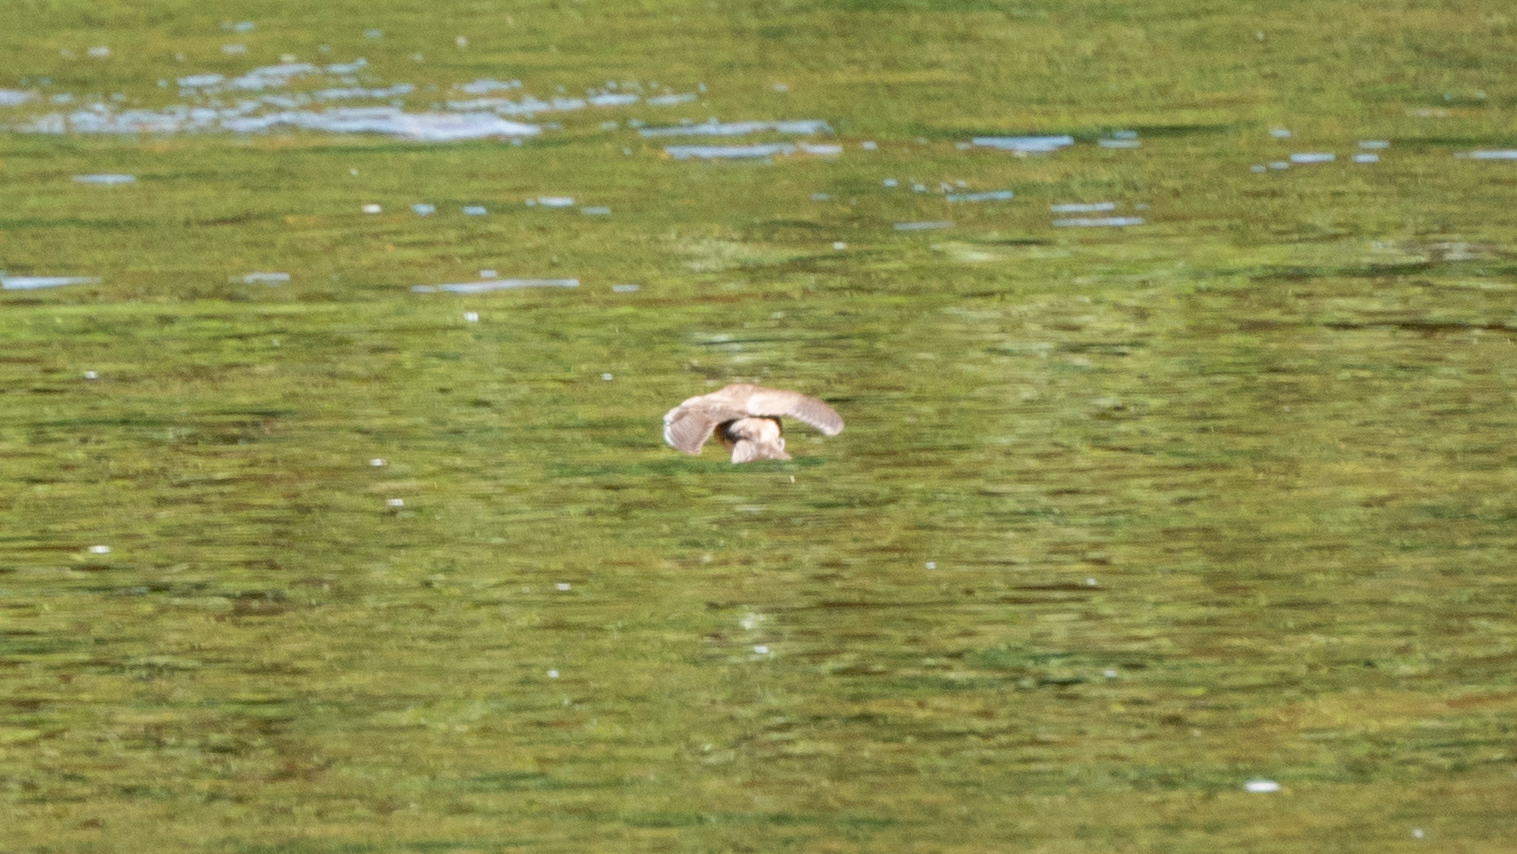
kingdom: Animalia
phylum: Chordata
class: Aves
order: Passeriformes
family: Hirundinidae
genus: Stelgidopteryx
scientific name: Stelgidopteryx serripennis
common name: Northern rough-winged swallow
